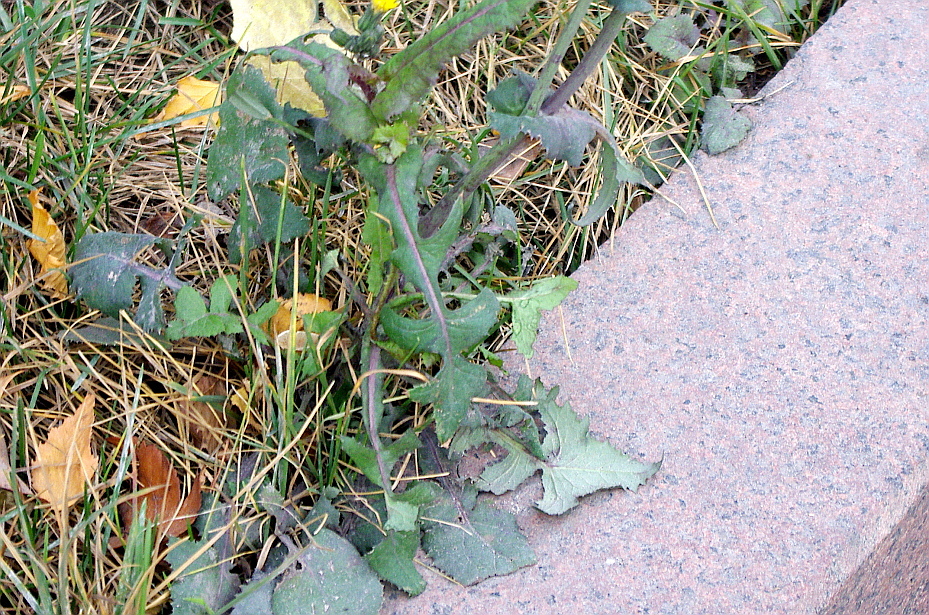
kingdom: Plantae
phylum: Tracheophyta
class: Magnoliopsida
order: Asterales
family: Asteraceae
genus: Sonchus
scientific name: Sonchus oleraceus
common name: Common sowthistle
